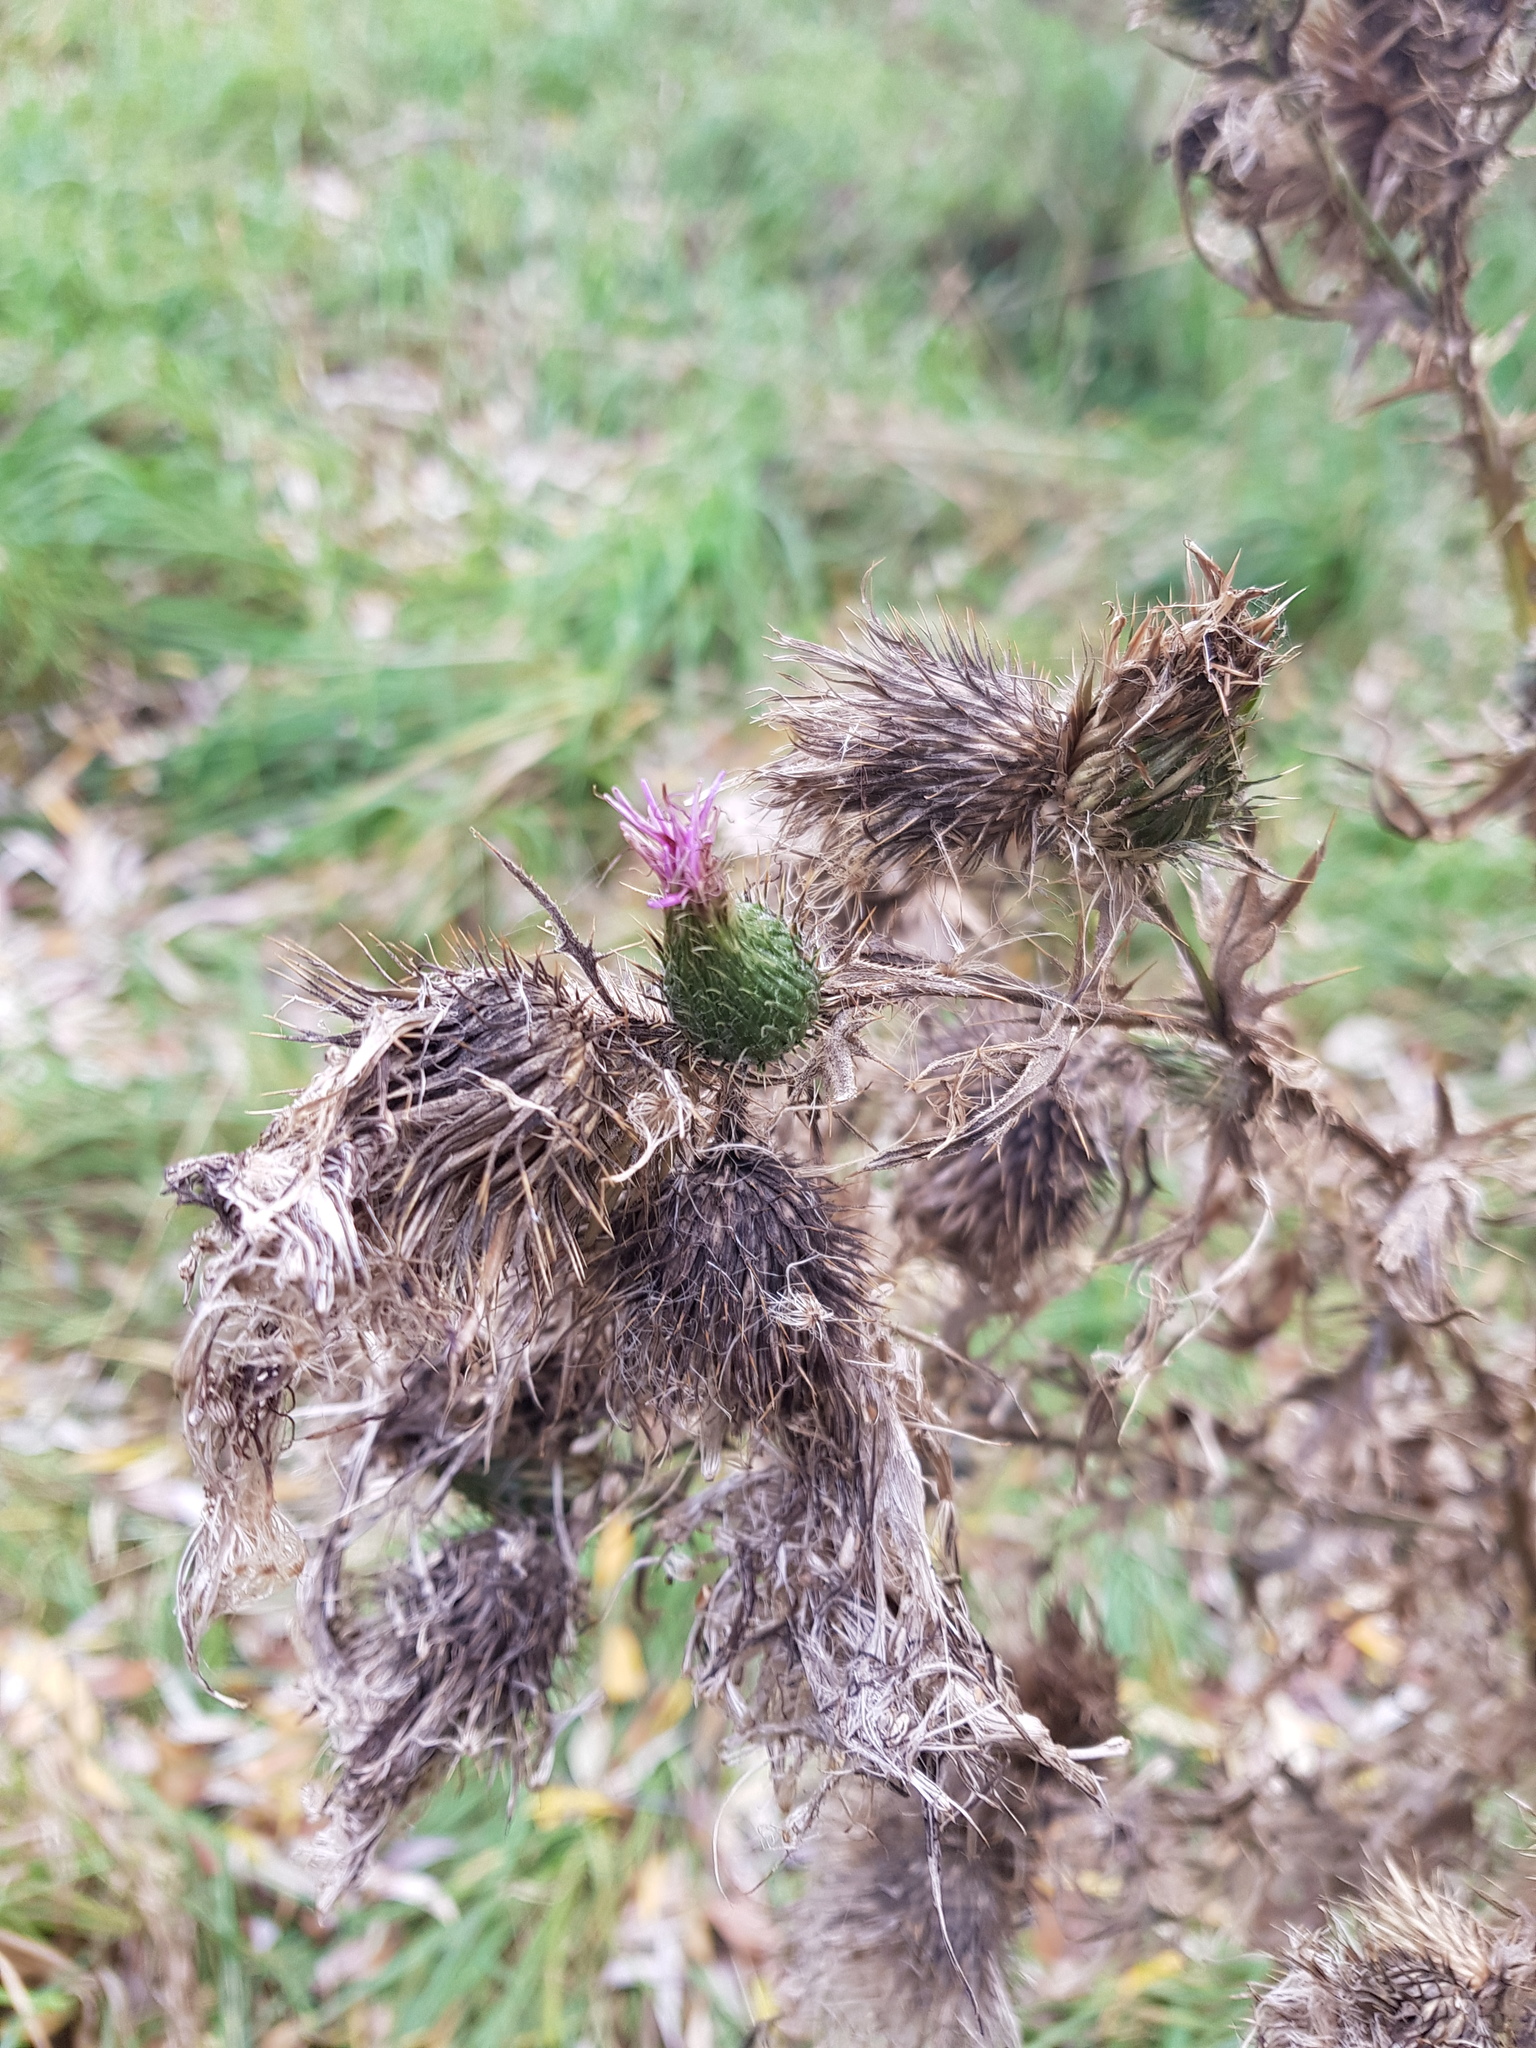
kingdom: Plantae
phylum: Tracheophyta
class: Magnoliopsida
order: Asterales
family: Asteraceae
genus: Cirsium
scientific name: Cirsium vulgare
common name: Bull thistle
